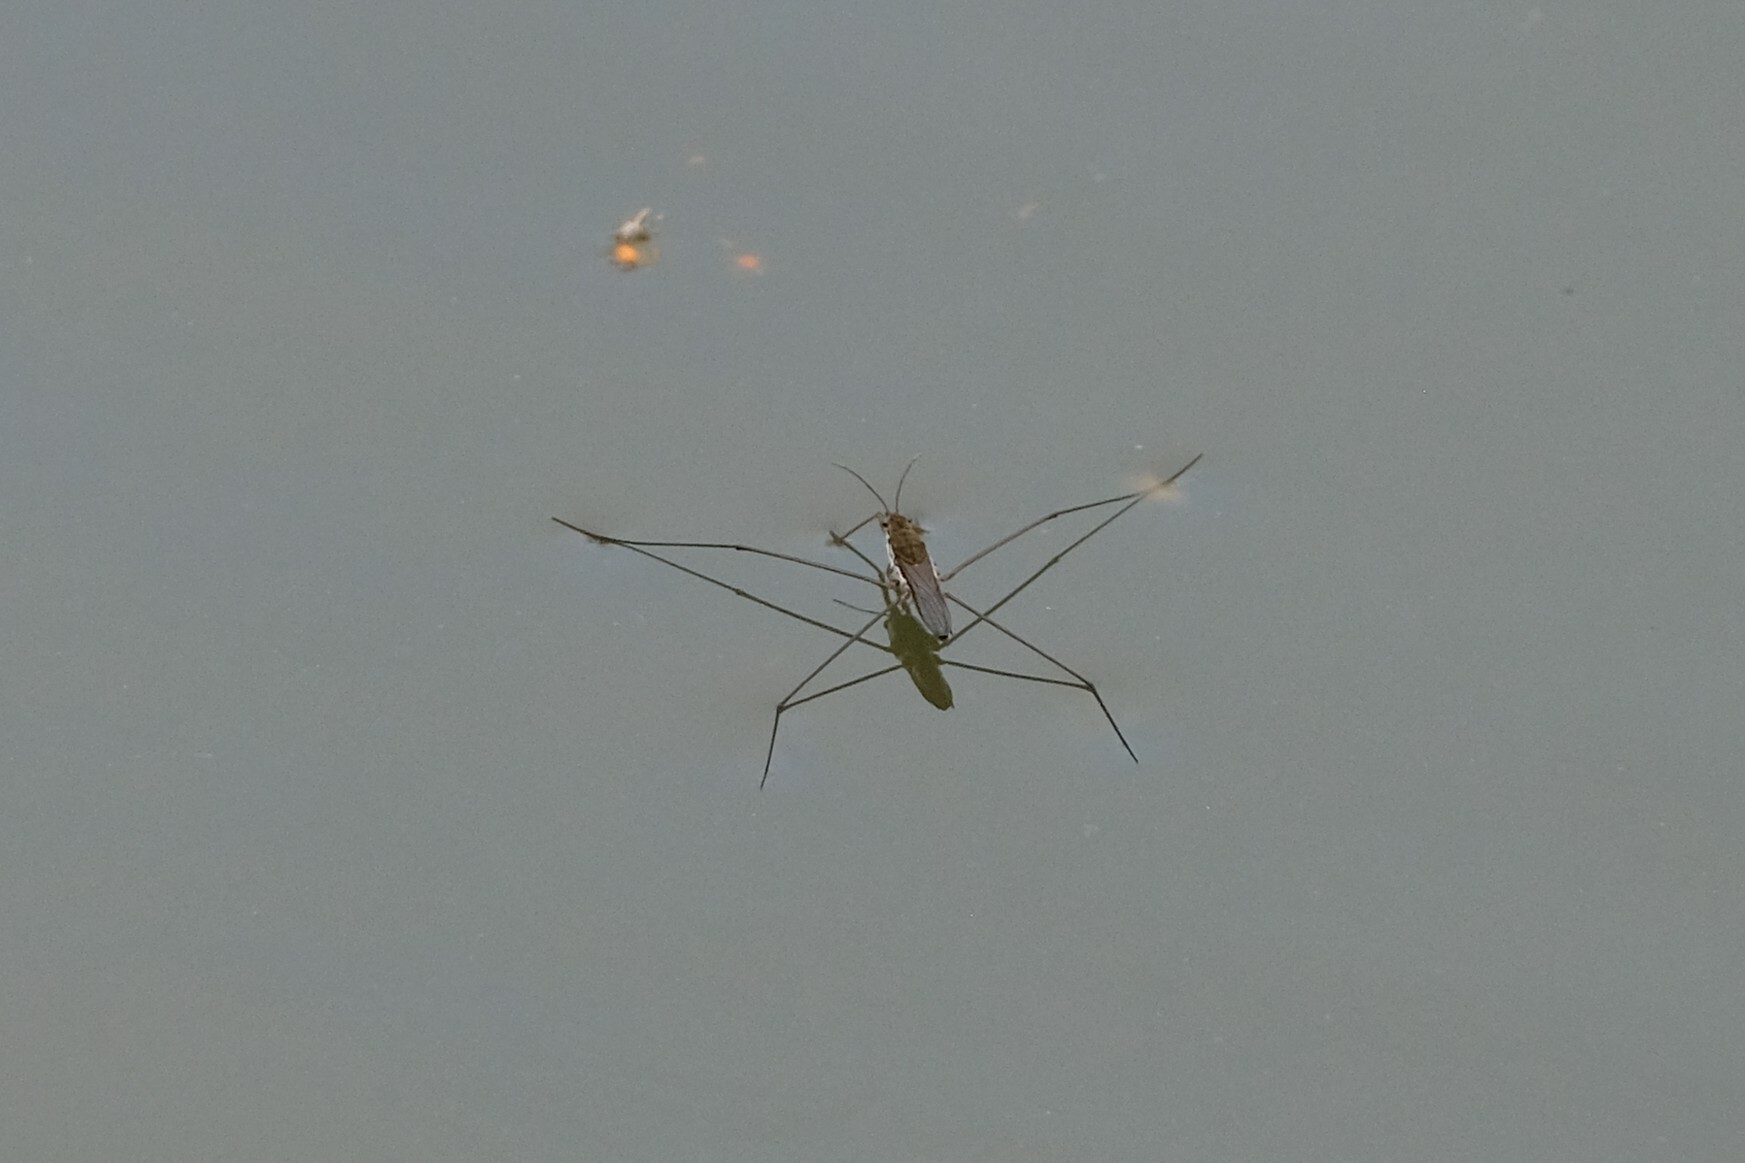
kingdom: Animalia
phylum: Arthropoda
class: Insecta
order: Hemiptera
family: Gerridae
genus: Aquarius
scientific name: Aquarius paludum
